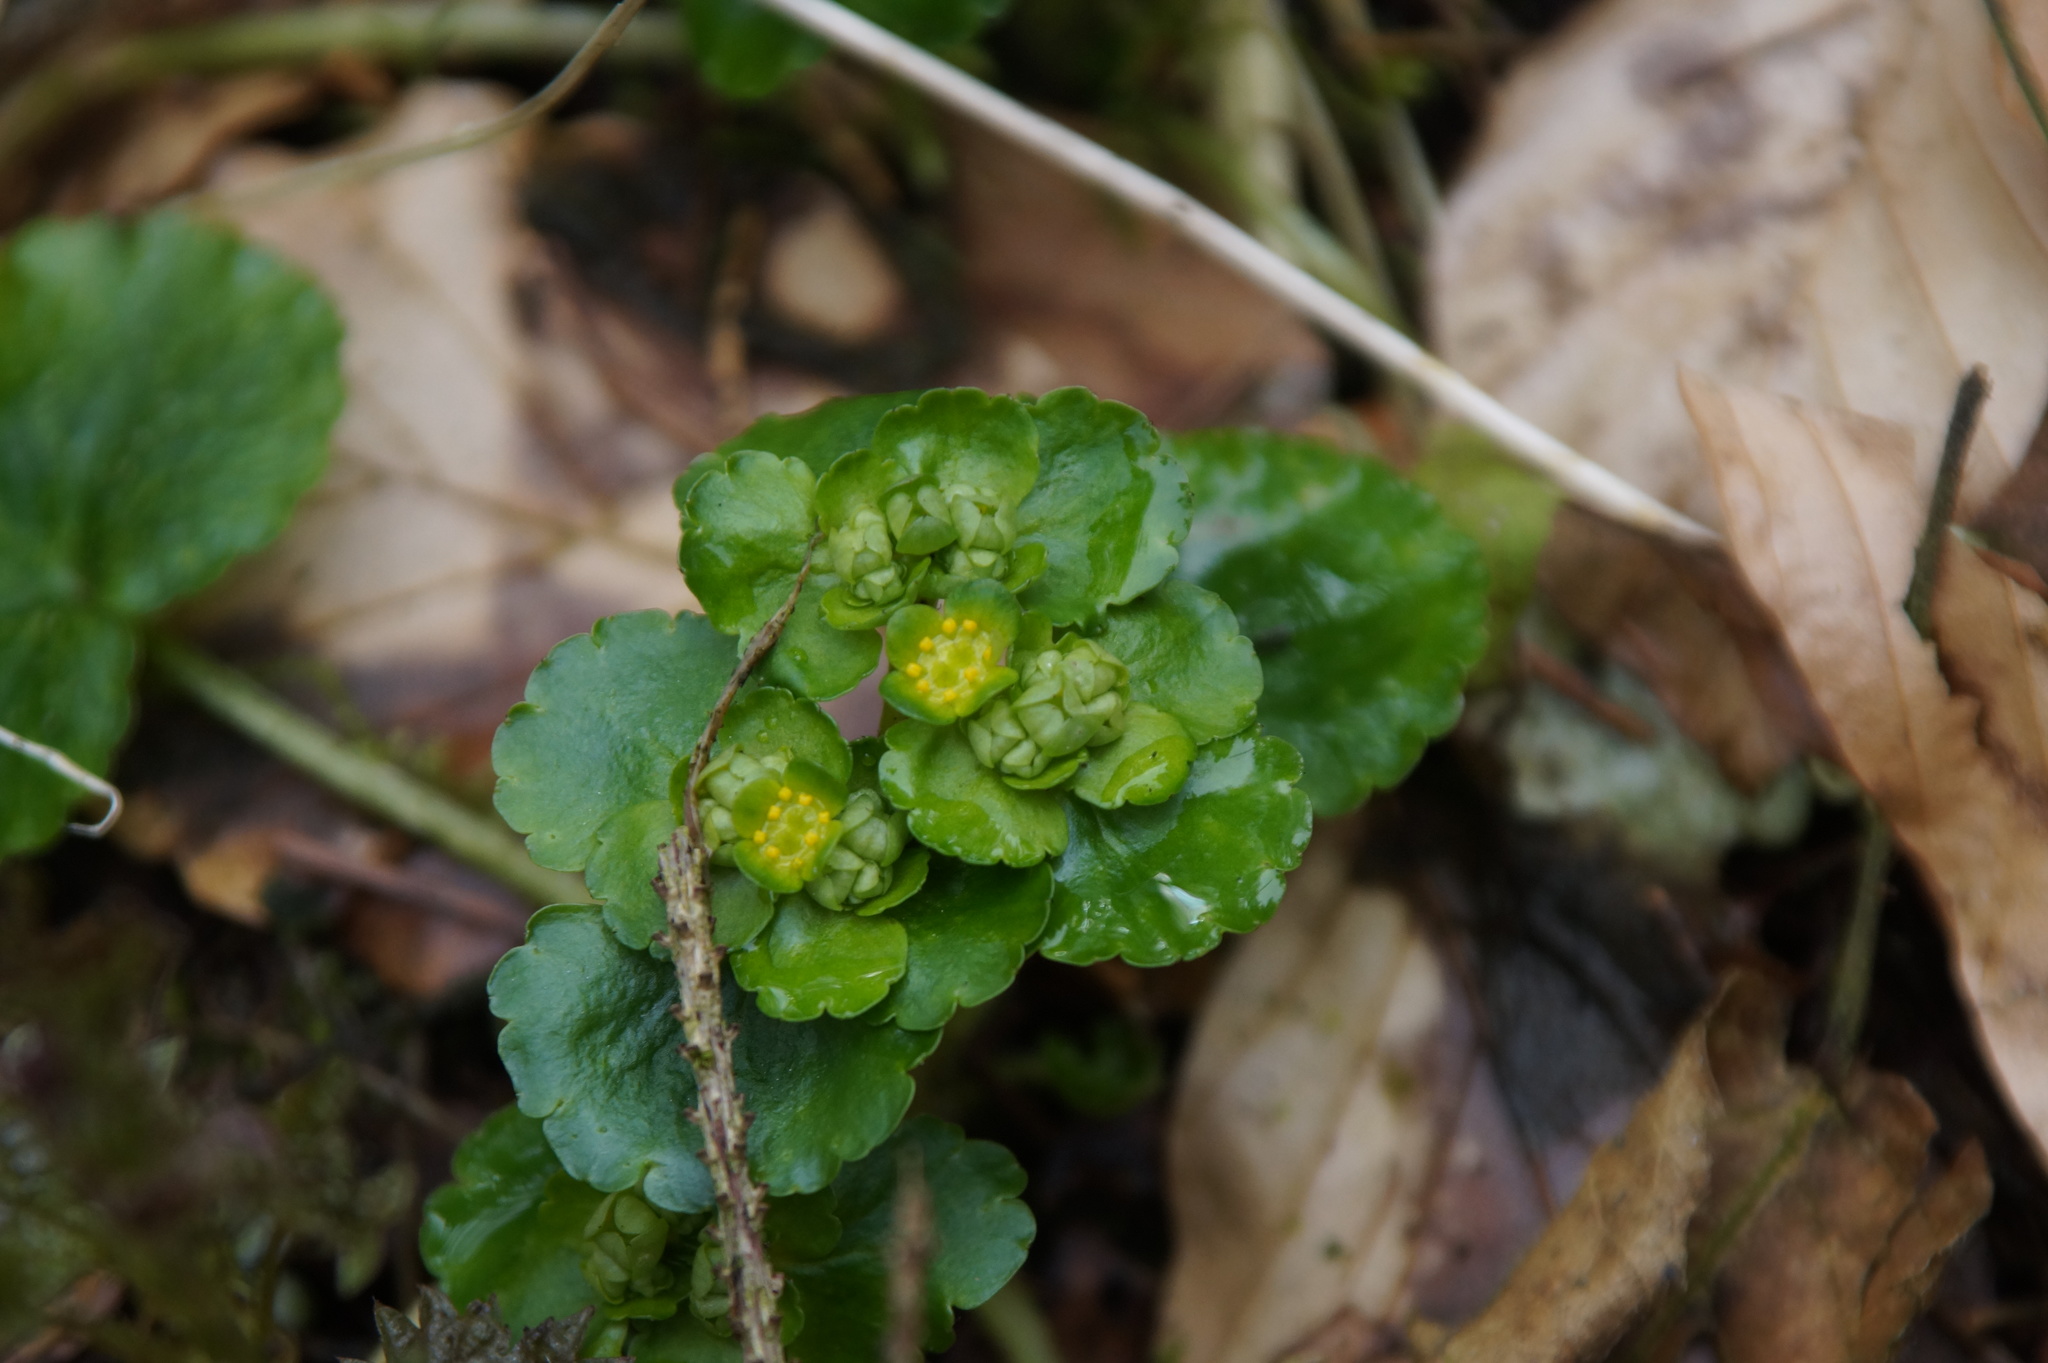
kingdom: Plantae
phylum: Tracheophyta
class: Magnoliopsida
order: Saxifragales
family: Saxifragaceae
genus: Chrysosplenium
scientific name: Chrysosplenium alternifolium
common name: Alternate-leaved golden-saxifrage
